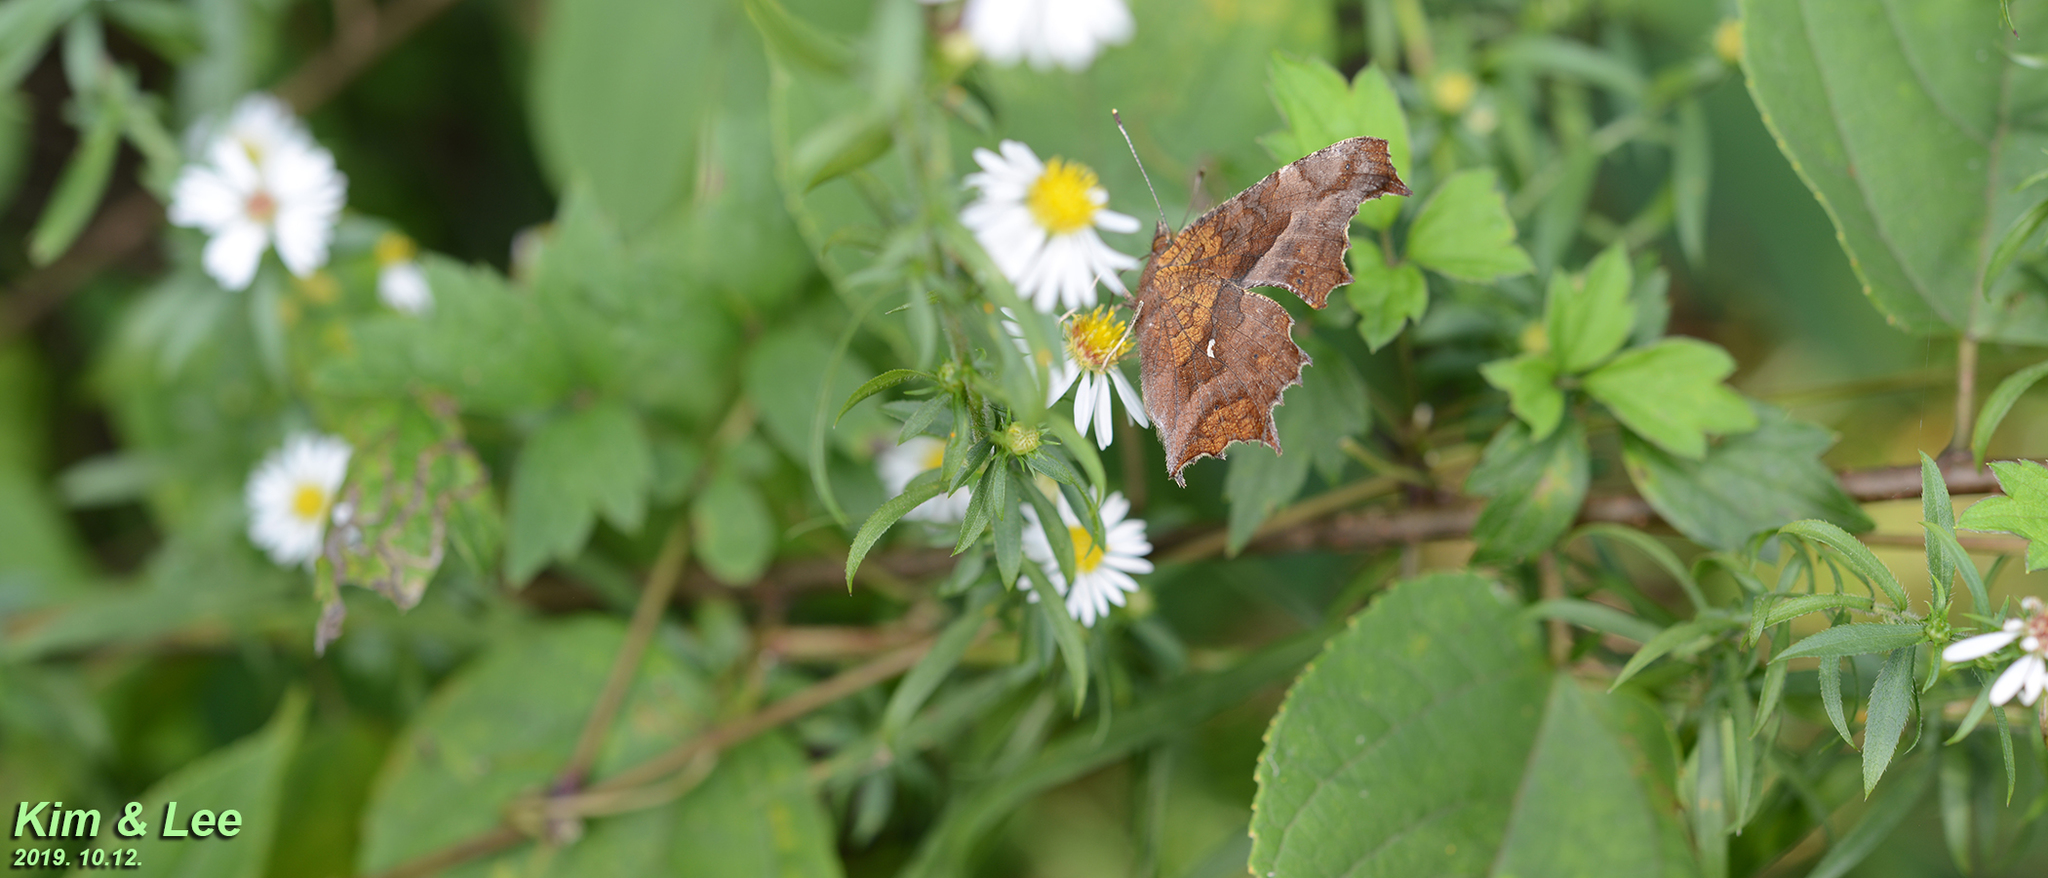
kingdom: Animalia
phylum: Arthropoda
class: Insecta
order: Lepidoptera
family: Nymphalidae
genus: Polygonia
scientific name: Polygonia c-aureum
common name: Asian comma
